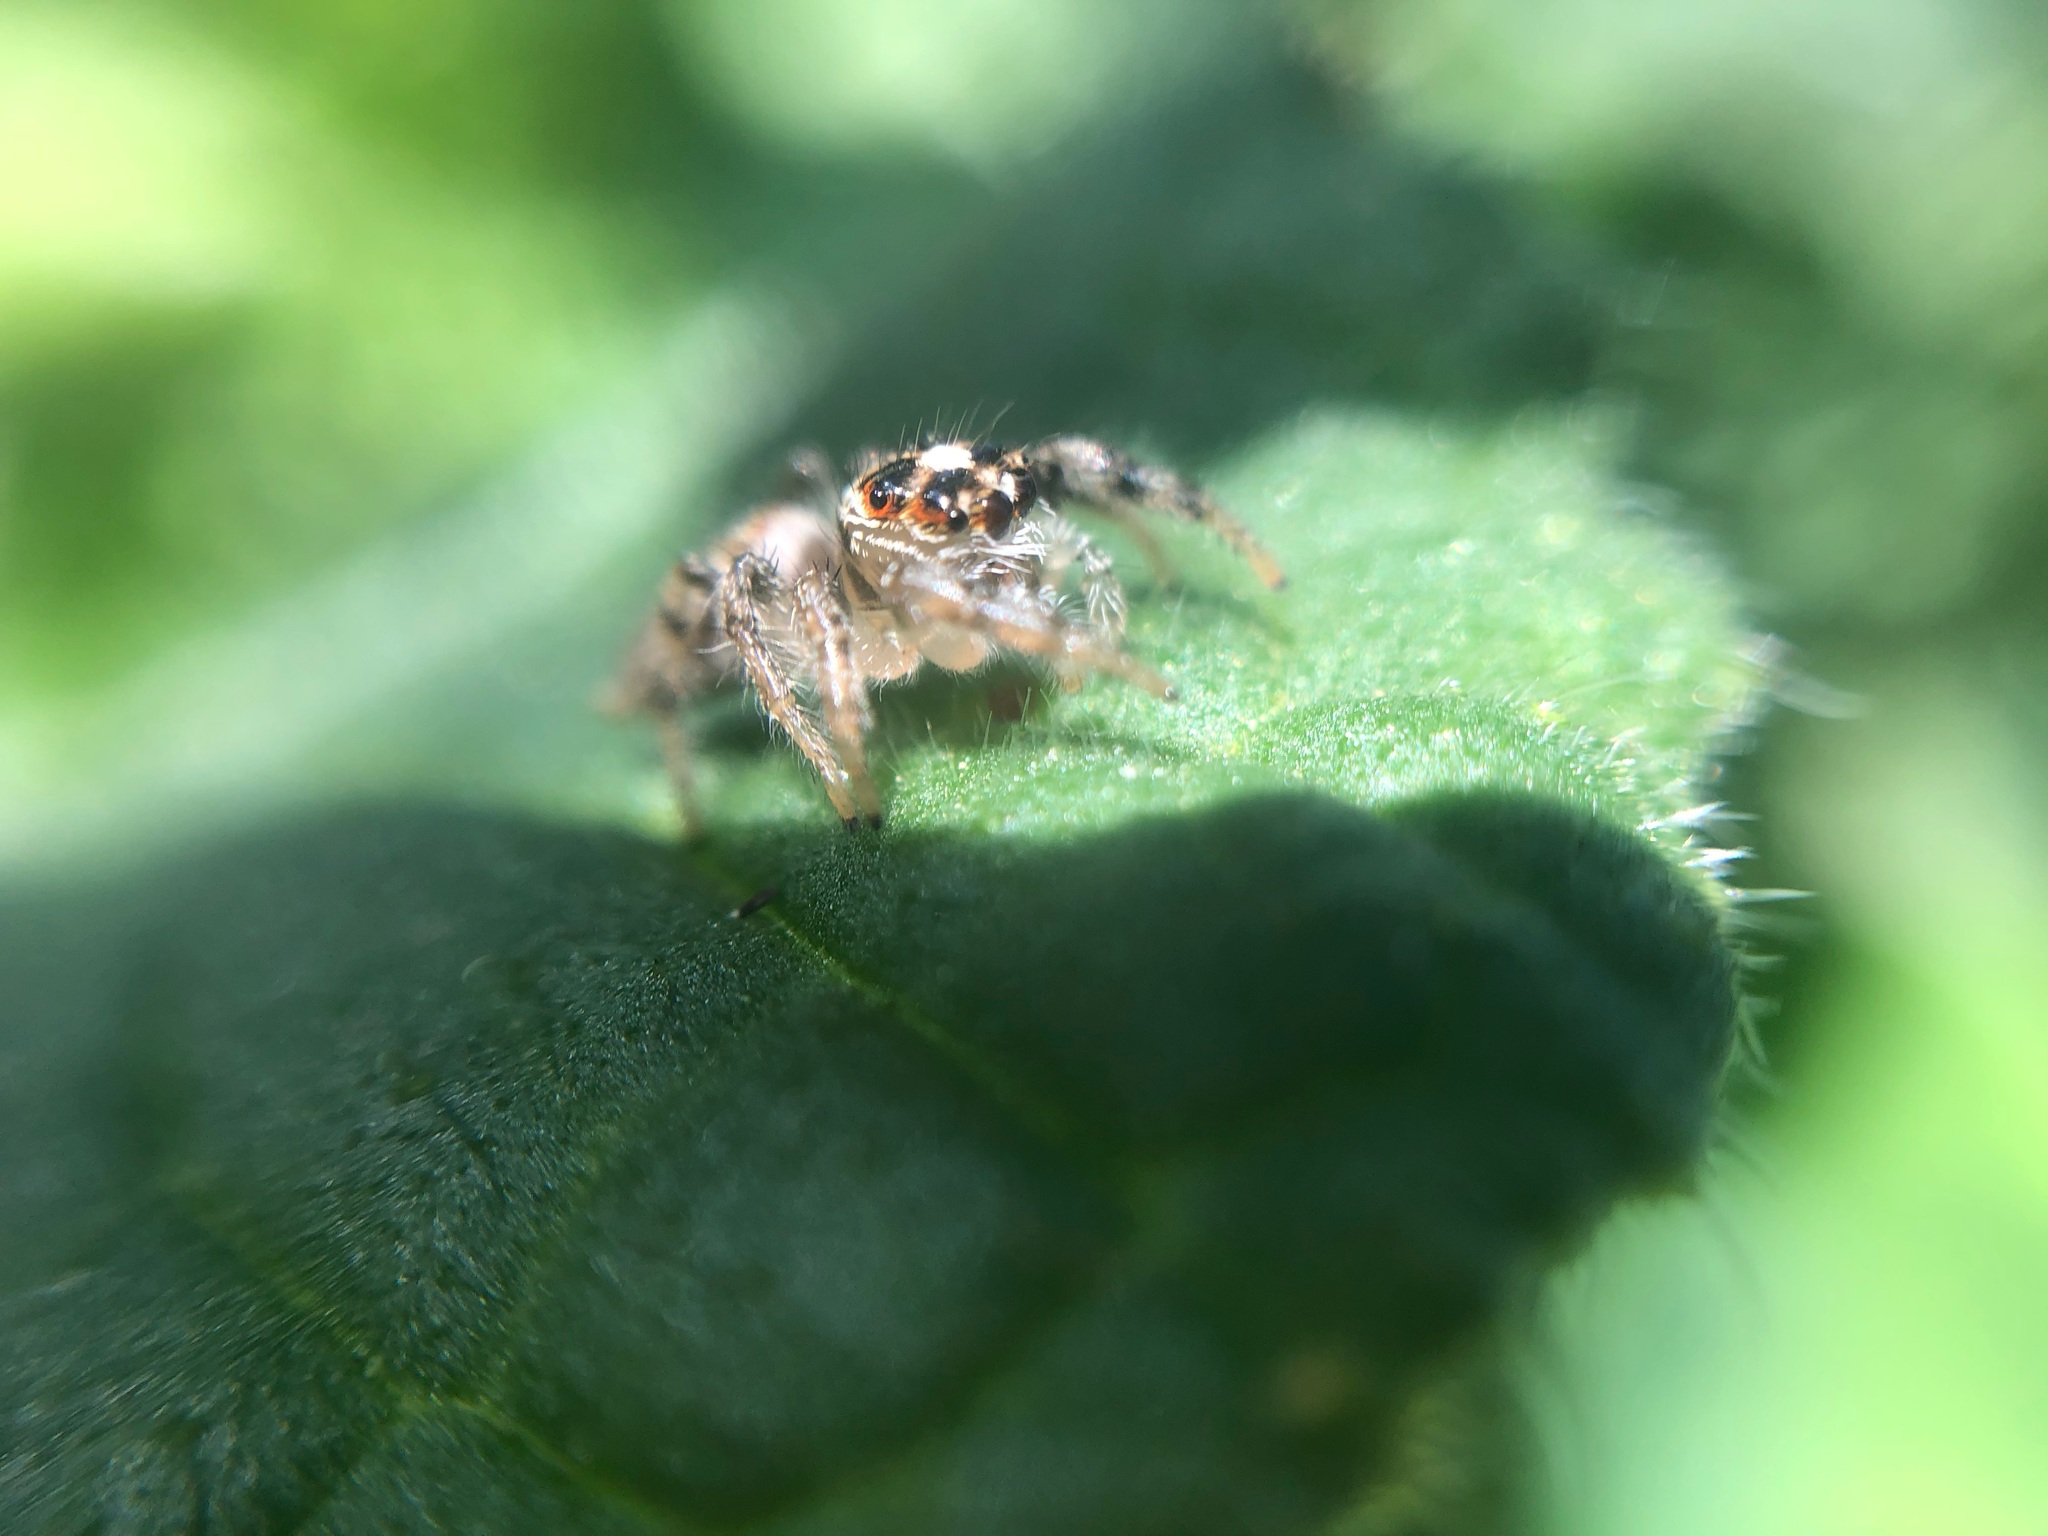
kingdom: Animalia
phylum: Arthropoda
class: Arachnida
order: Araneae
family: Salticidae
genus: Colonus
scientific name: Colonus hesperus
